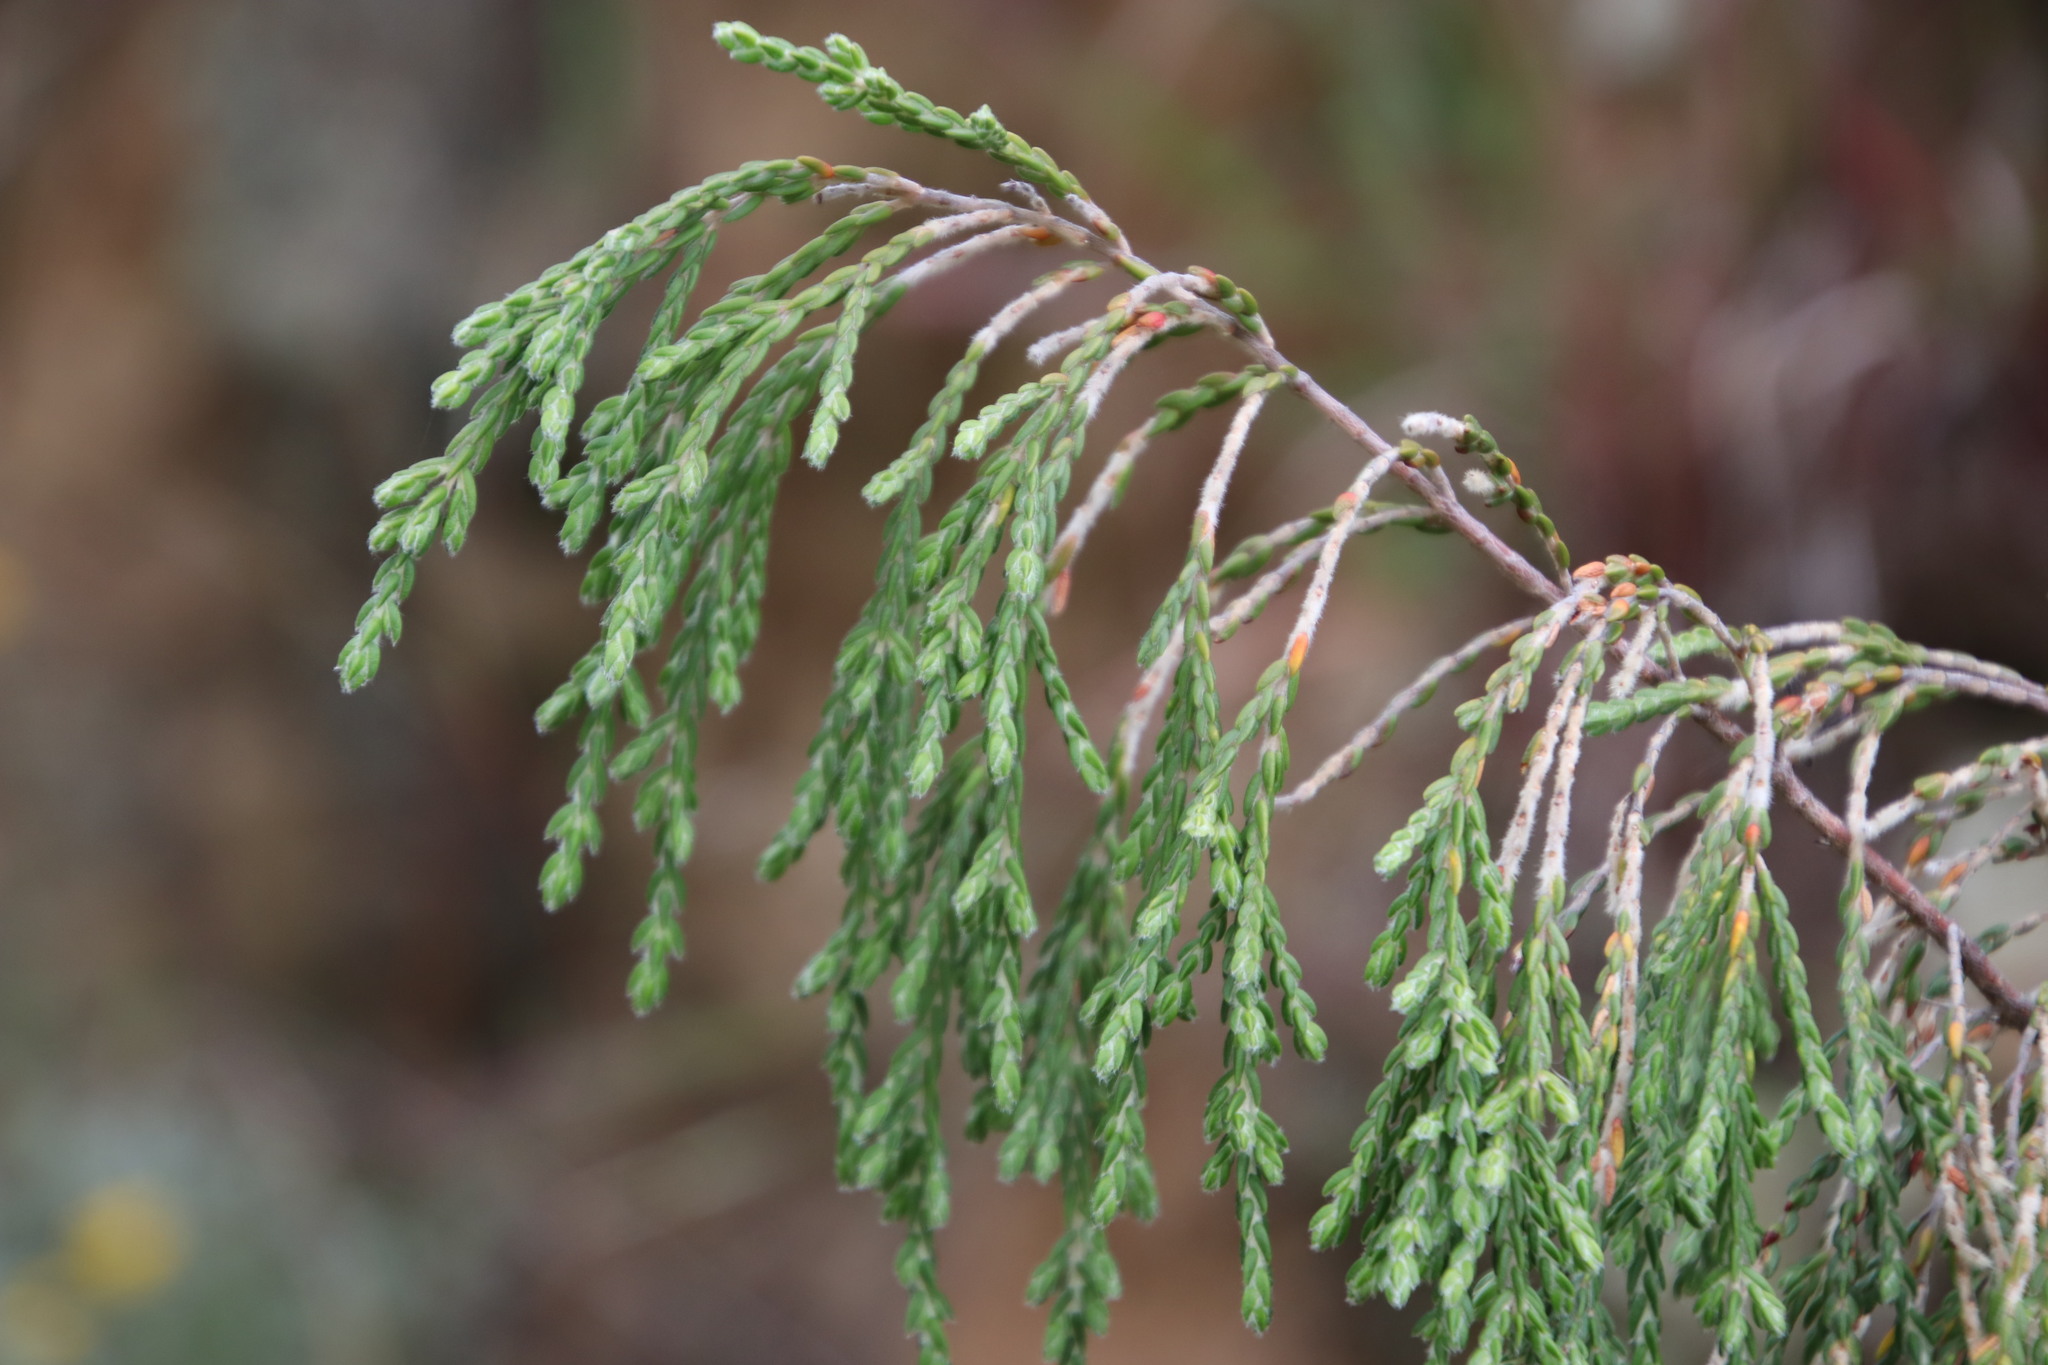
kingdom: Plantae
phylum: Tracheophyta
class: Magnoliopsida
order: Malvales
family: Thymelaeaceae
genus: Passerina
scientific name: Passerina montana
